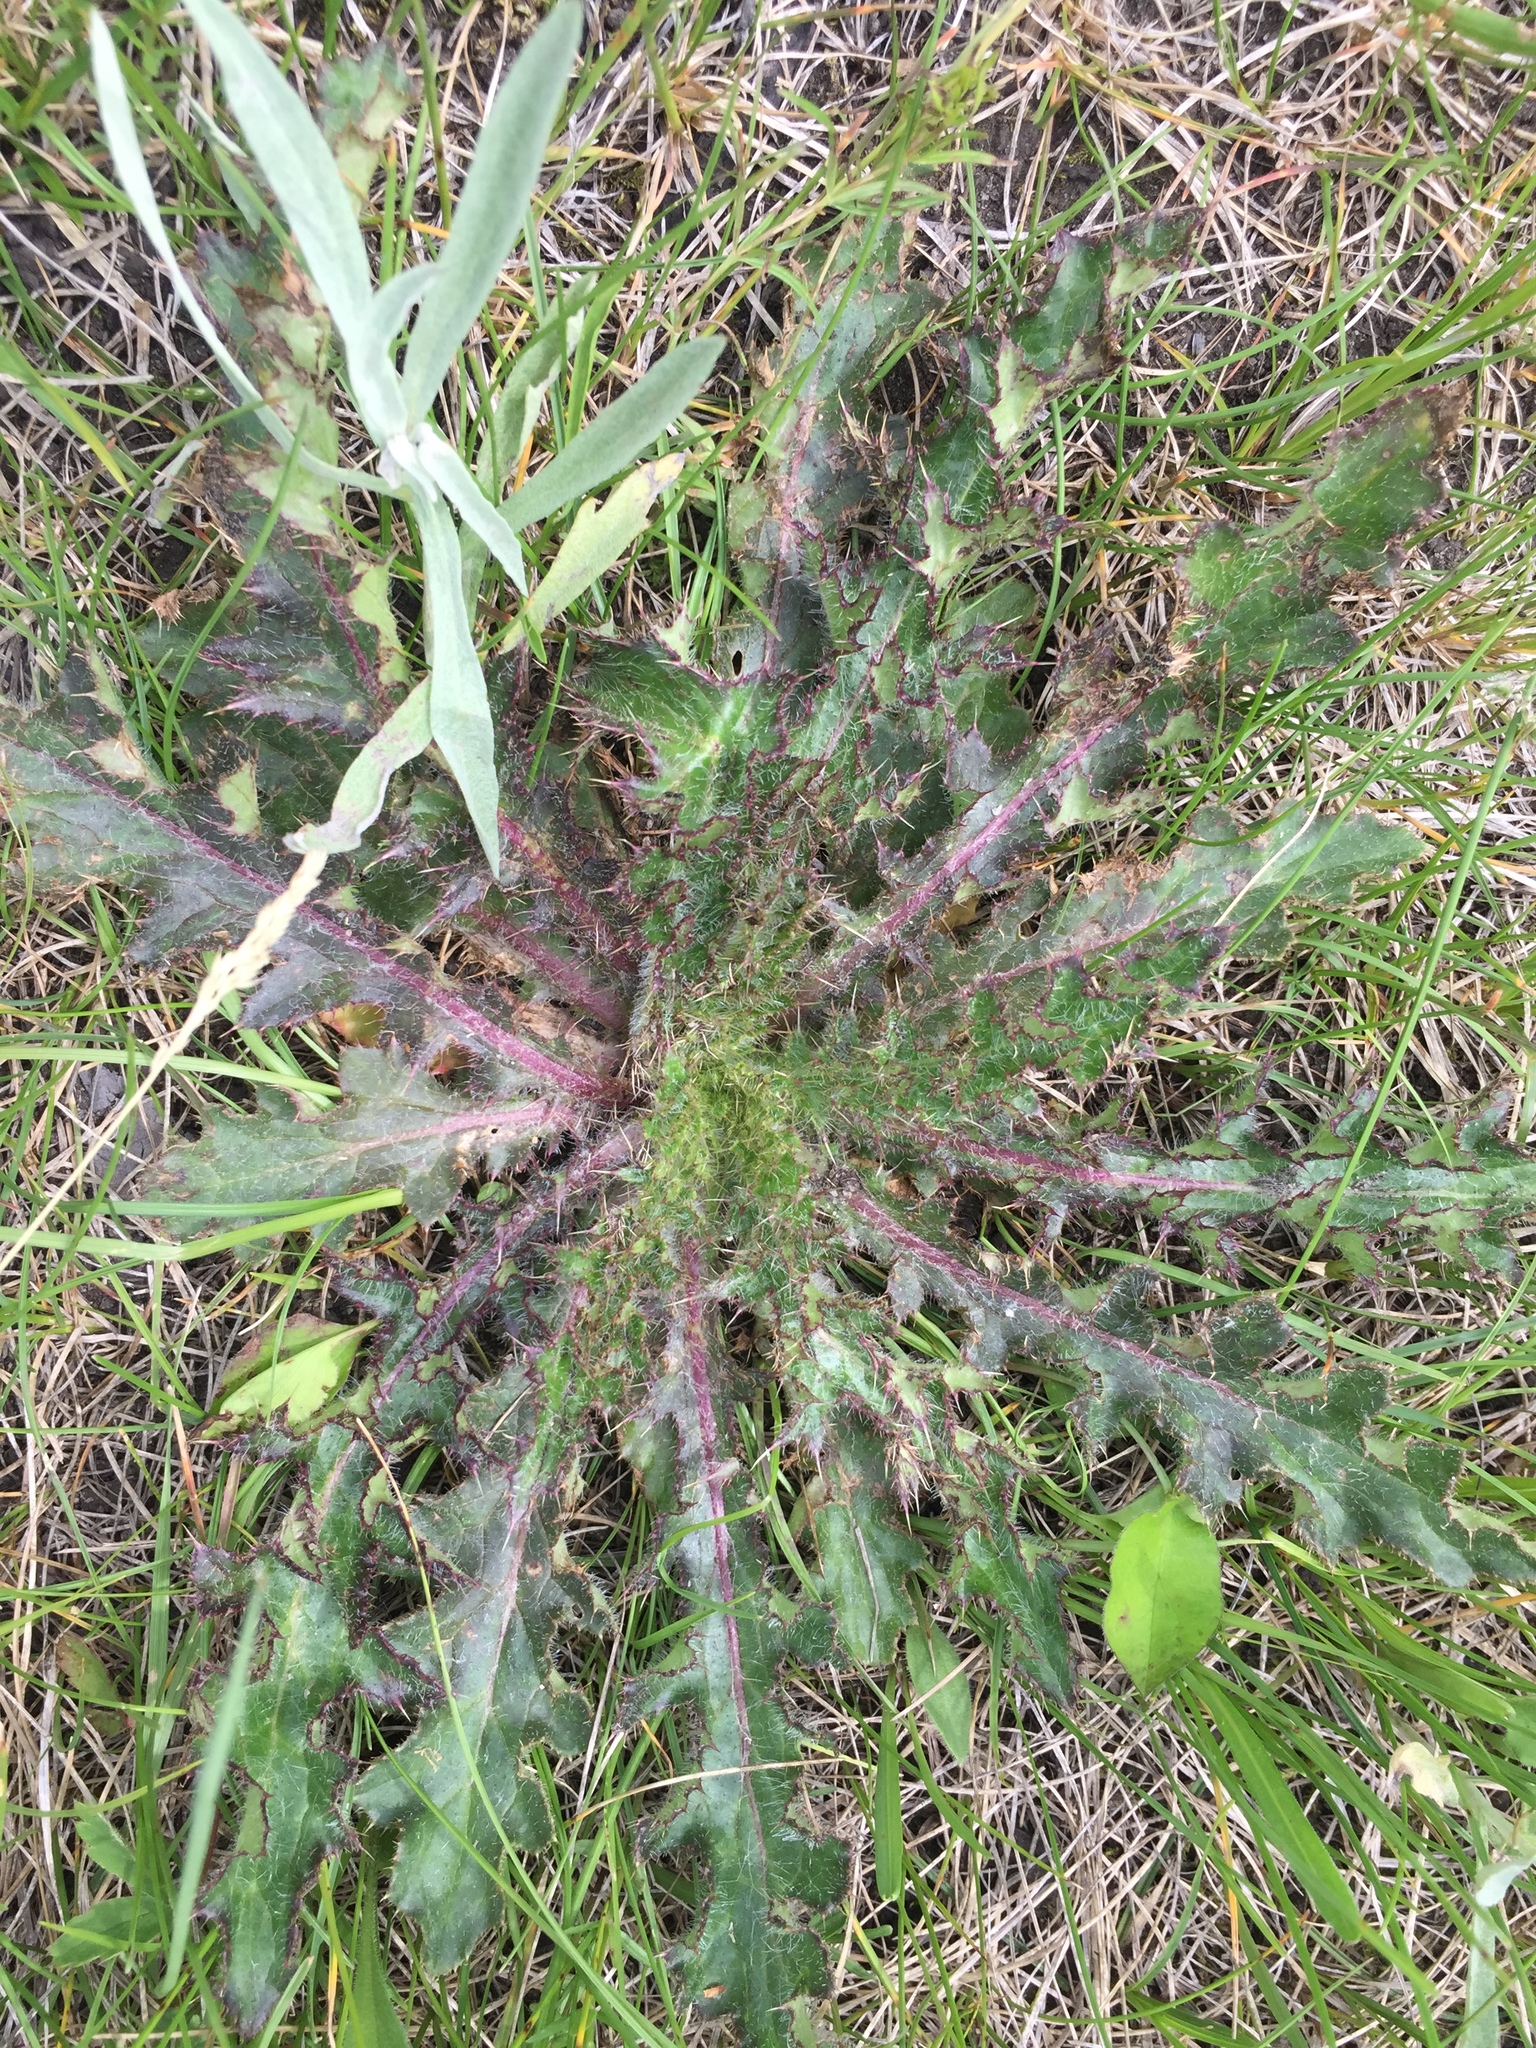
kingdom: Plantae
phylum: Tracheophyta
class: Magnoliopsida
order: Asterales
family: Asteraceae
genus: Cirsium
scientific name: Cirsium drummondii
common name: Drummond's thistle
